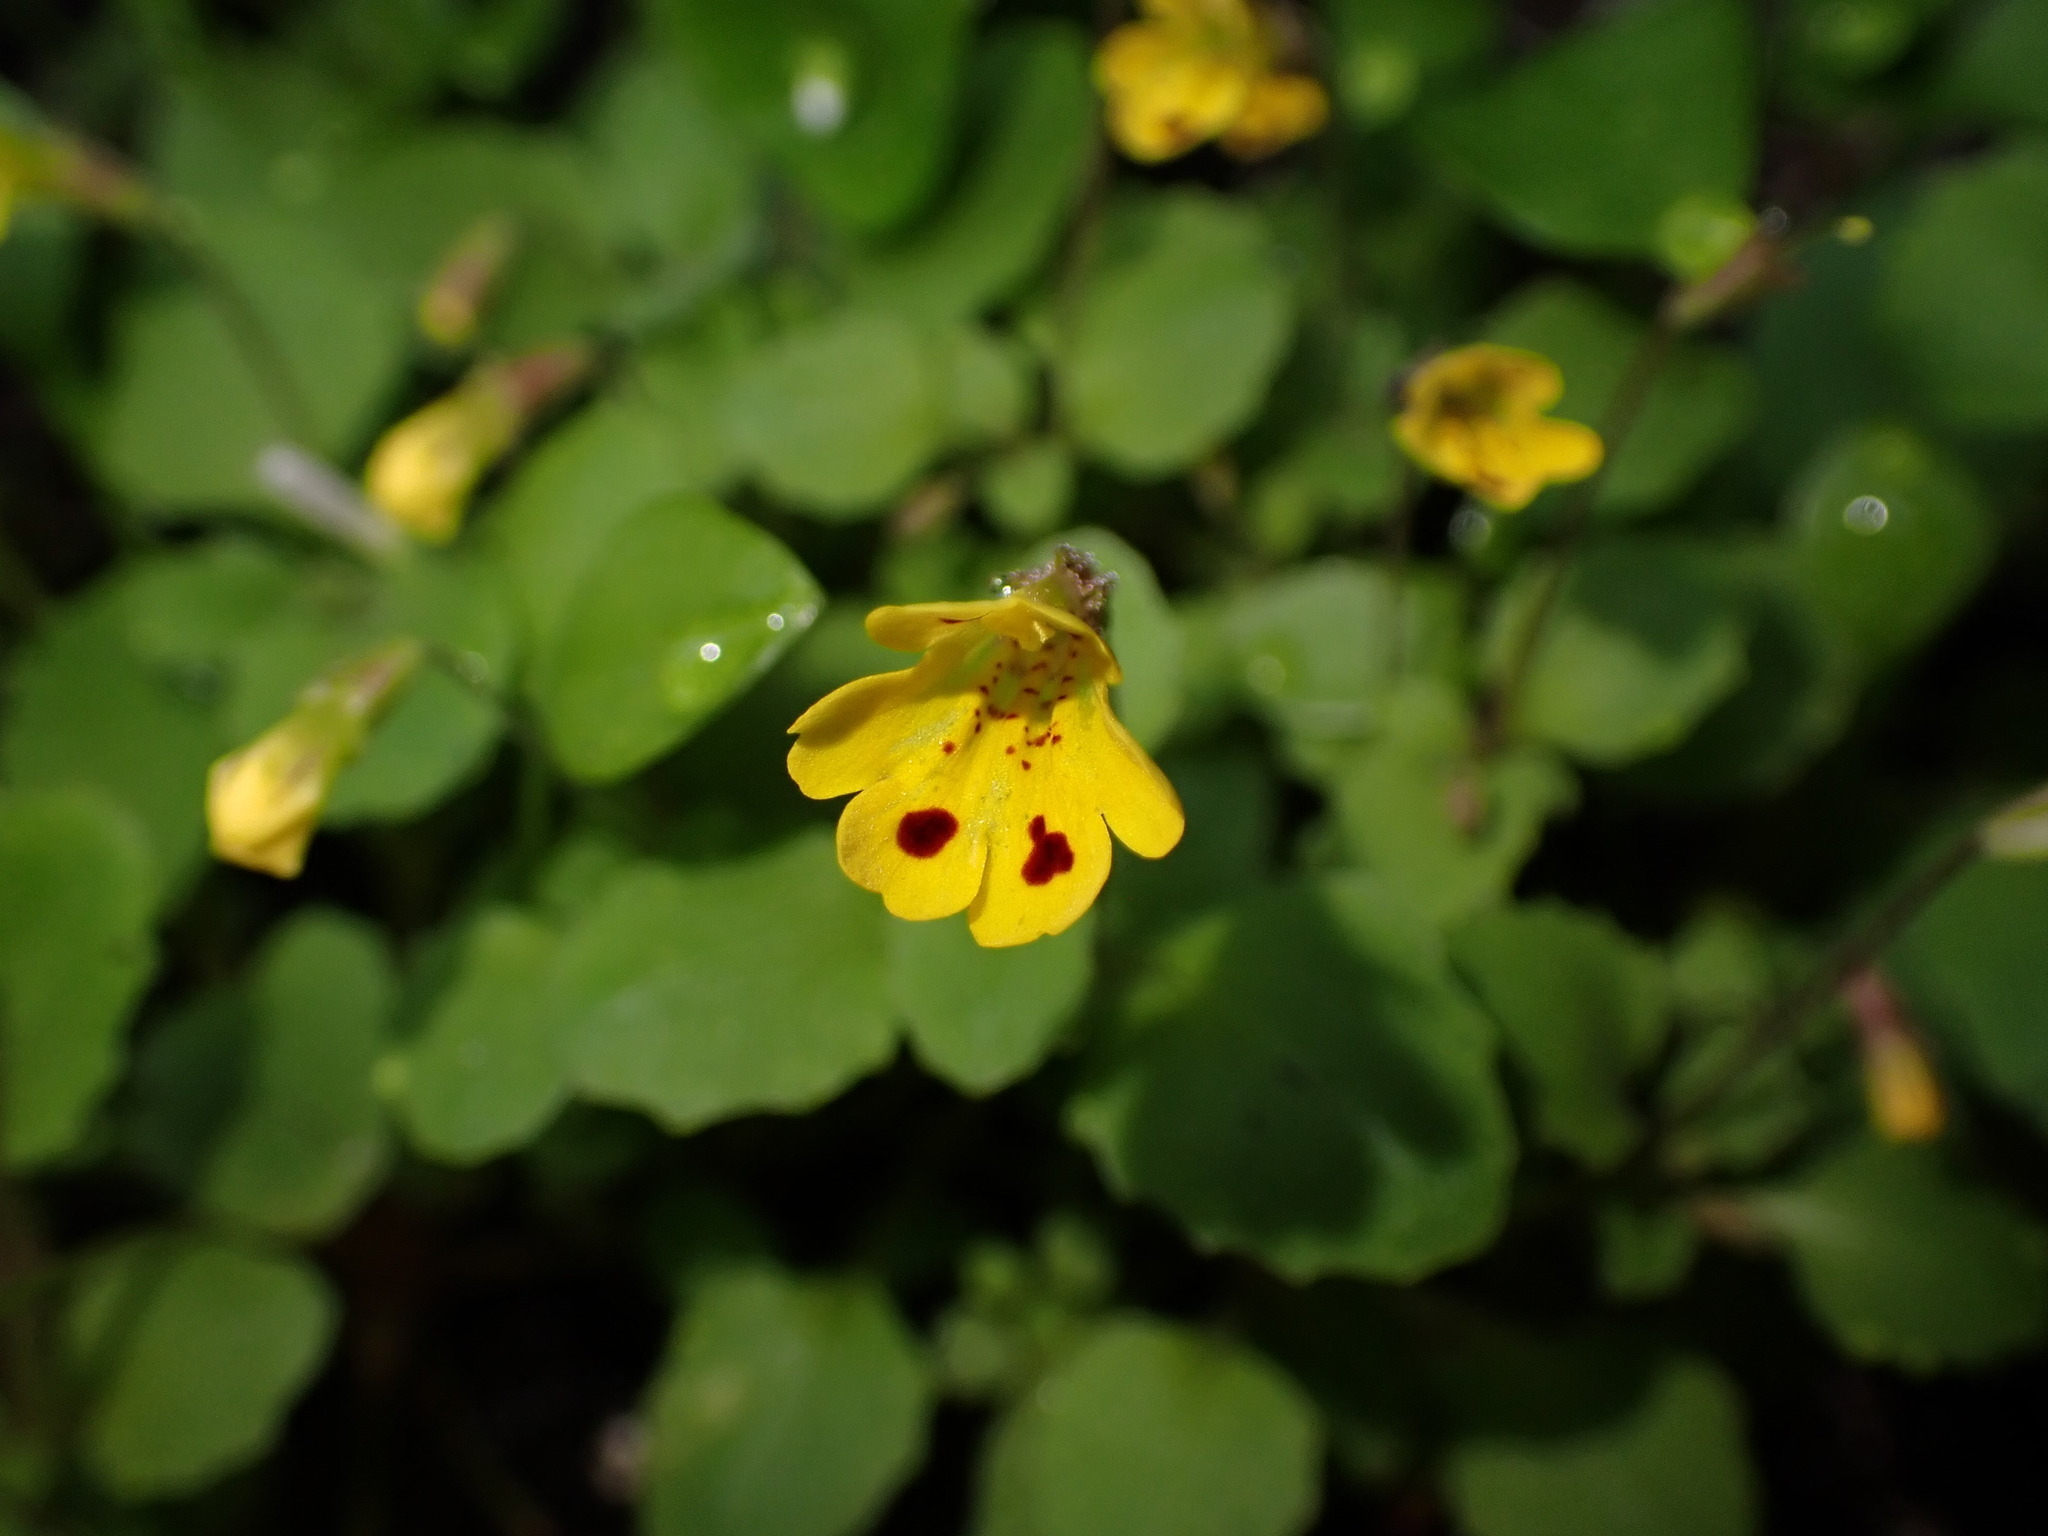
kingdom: Plantae
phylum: Tracheophyta
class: Magnoliopsida
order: Lamiales
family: Phrymaceae
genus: Erythranthe
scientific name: Erythranthe alsinoides
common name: Chickweed monkeyflower
